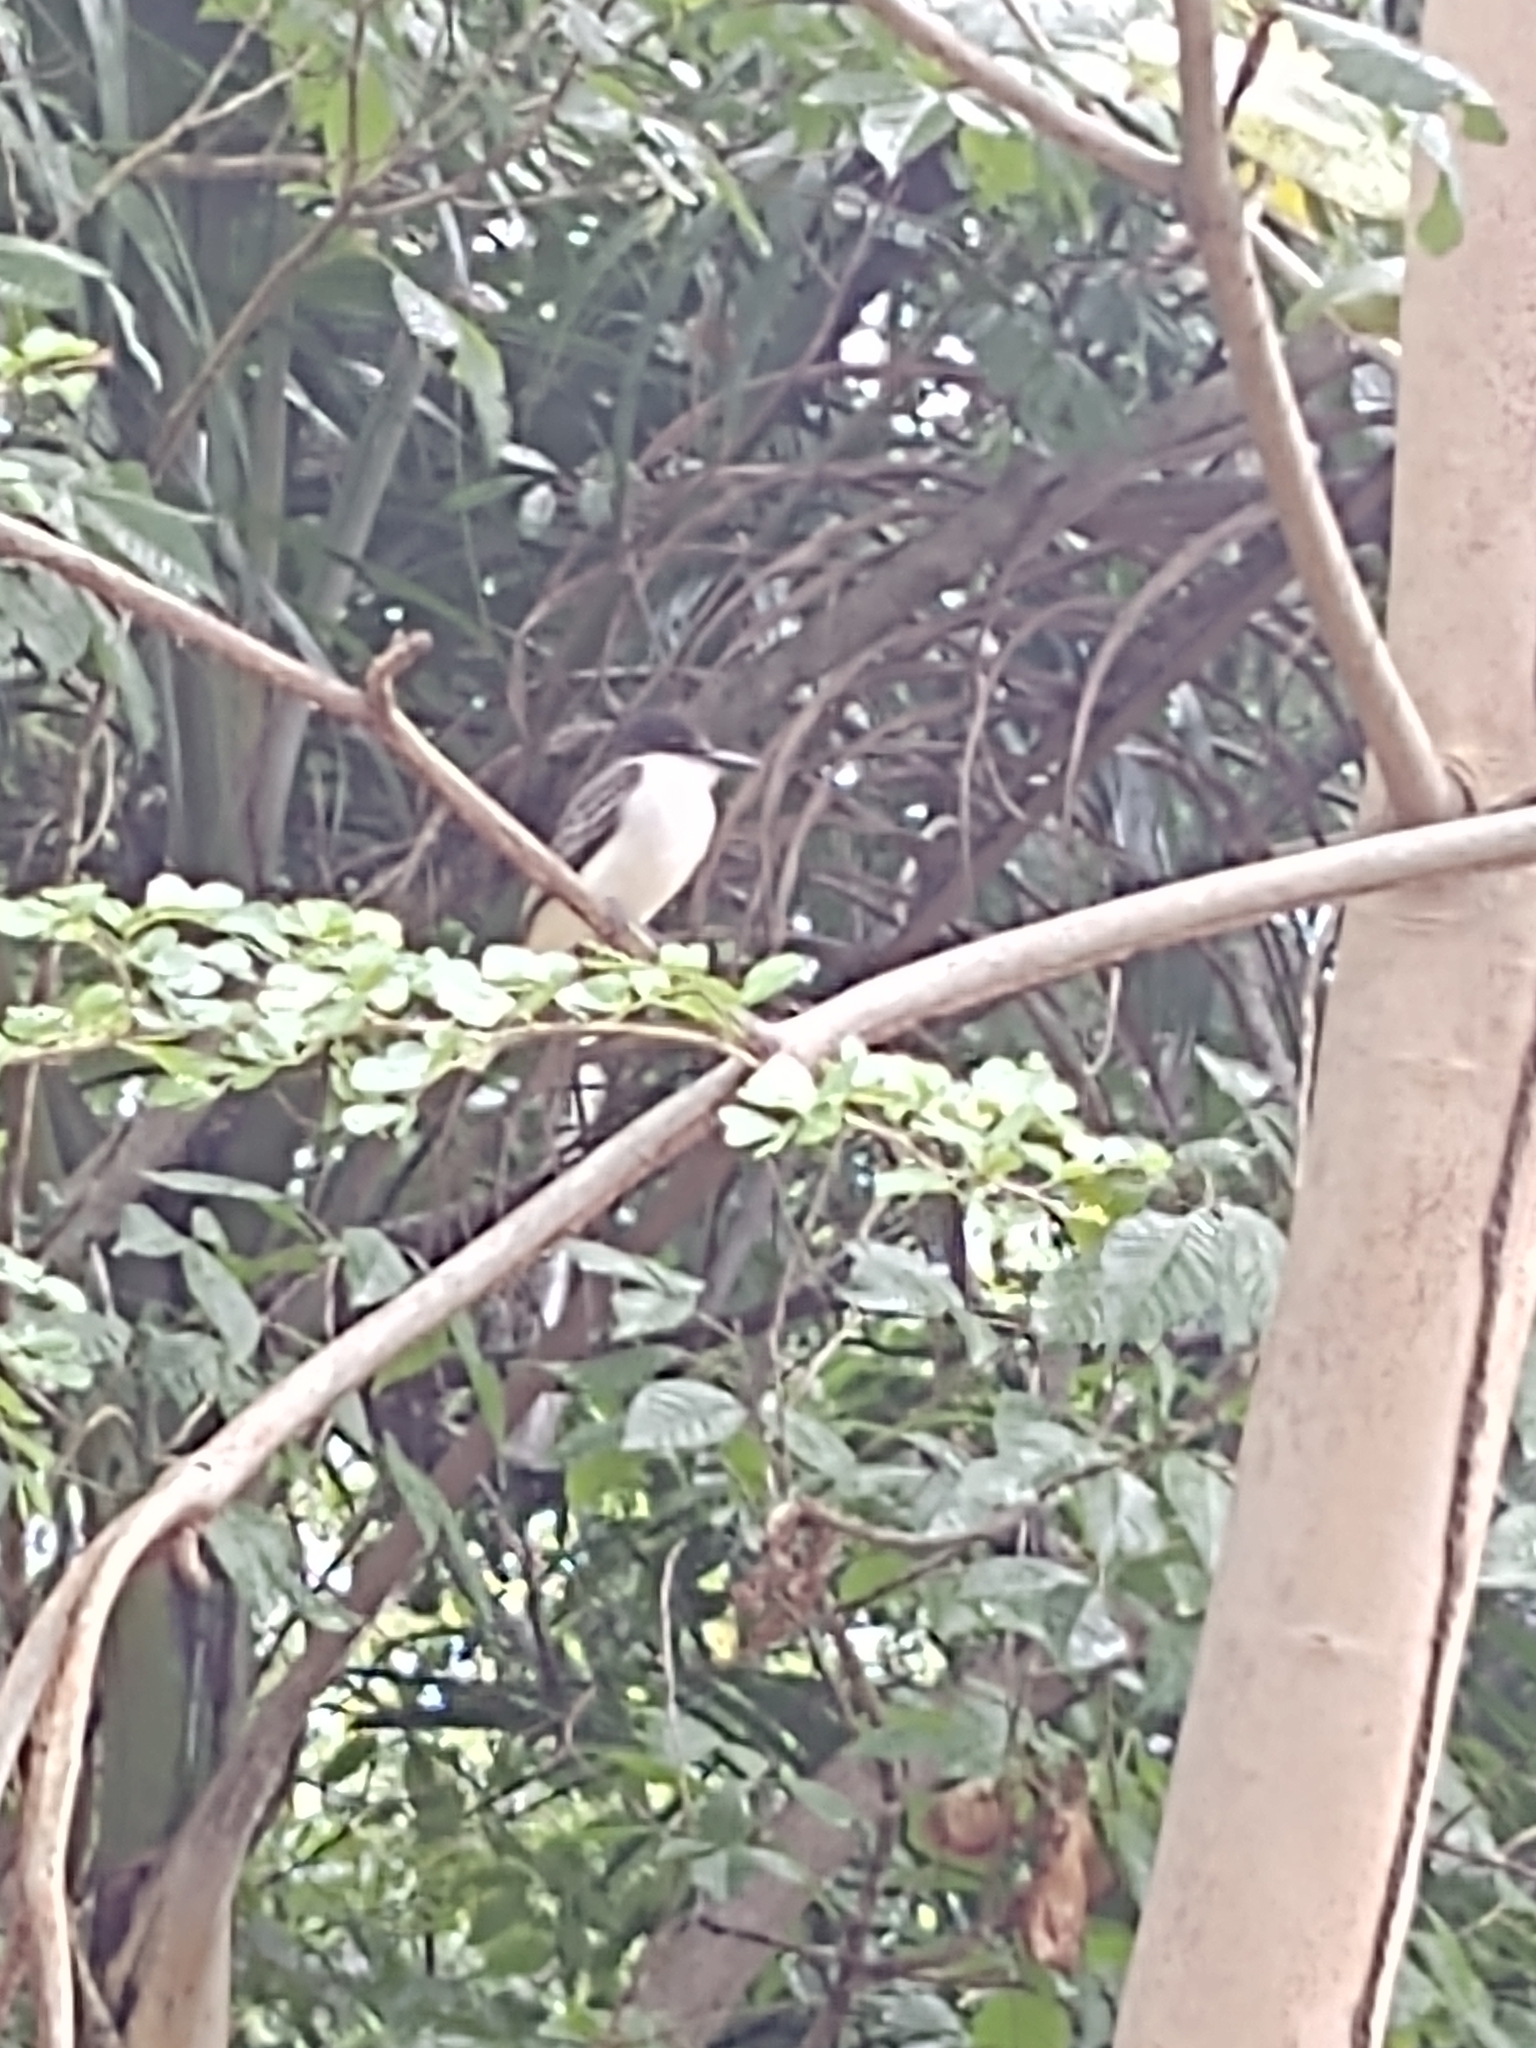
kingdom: Animalia
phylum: Chordata
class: Aves
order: Passeriformes
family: Tyrannidae
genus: Tyrannus
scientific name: Tyrannus caudifasciatus
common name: Loggerhead kingbird
